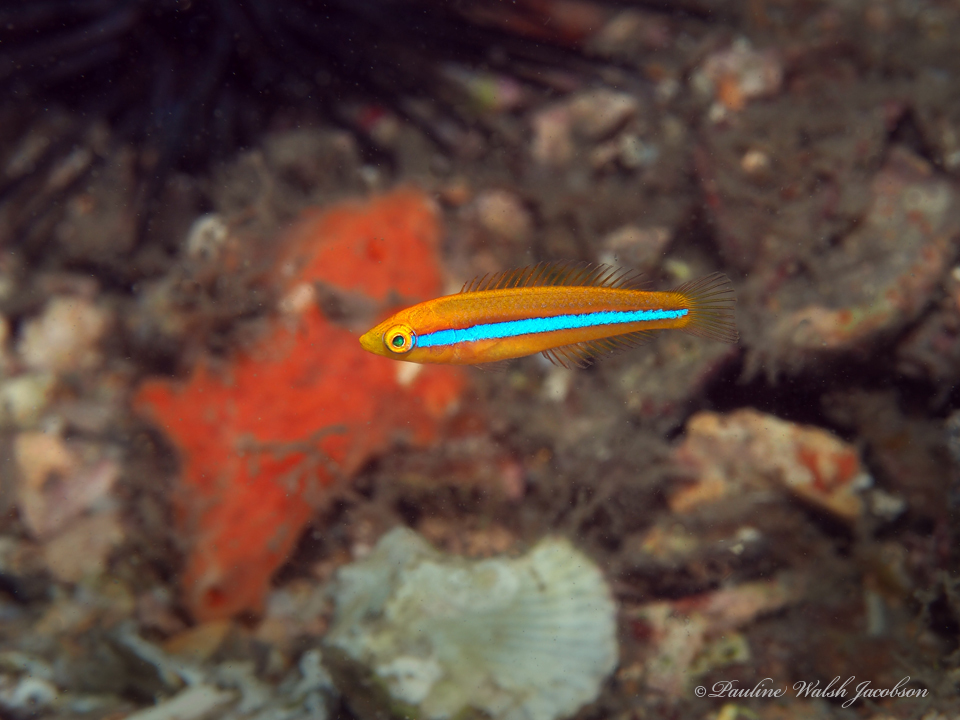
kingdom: Animalia
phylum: Chordata
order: Perciformes
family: Labridae
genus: Halichoeres
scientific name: Halichoeres garnoti
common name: Yellowhead wrasse
